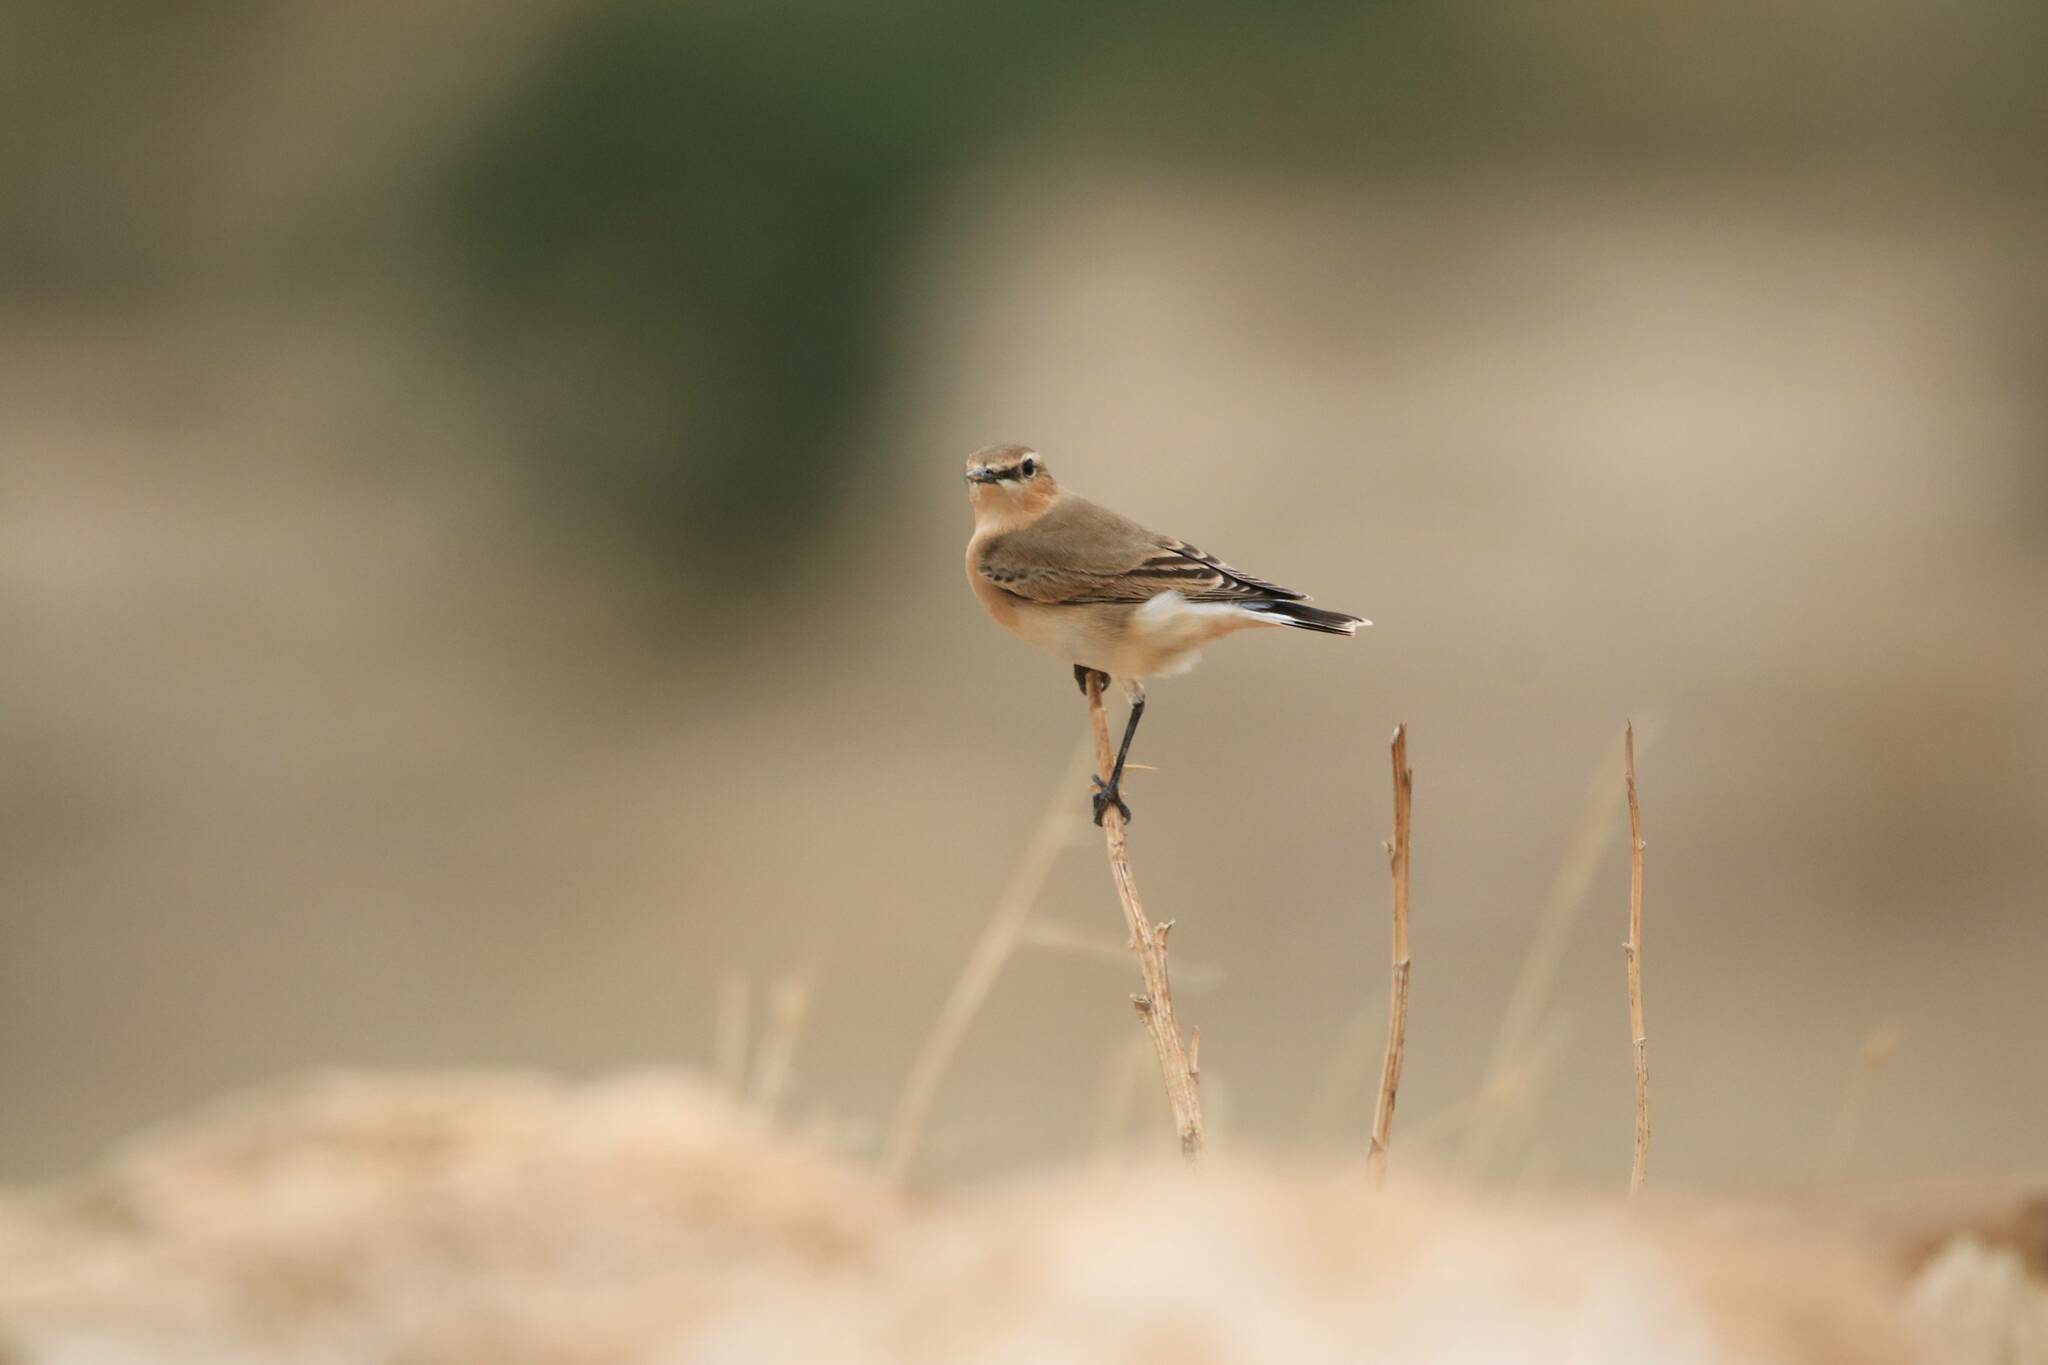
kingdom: Animalia
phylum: Chordata
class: Aves
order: Passeriformes
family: Muscicapidae
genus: Oenanthe
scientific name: Oenanthe oenanthe
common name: Northern wheatear
